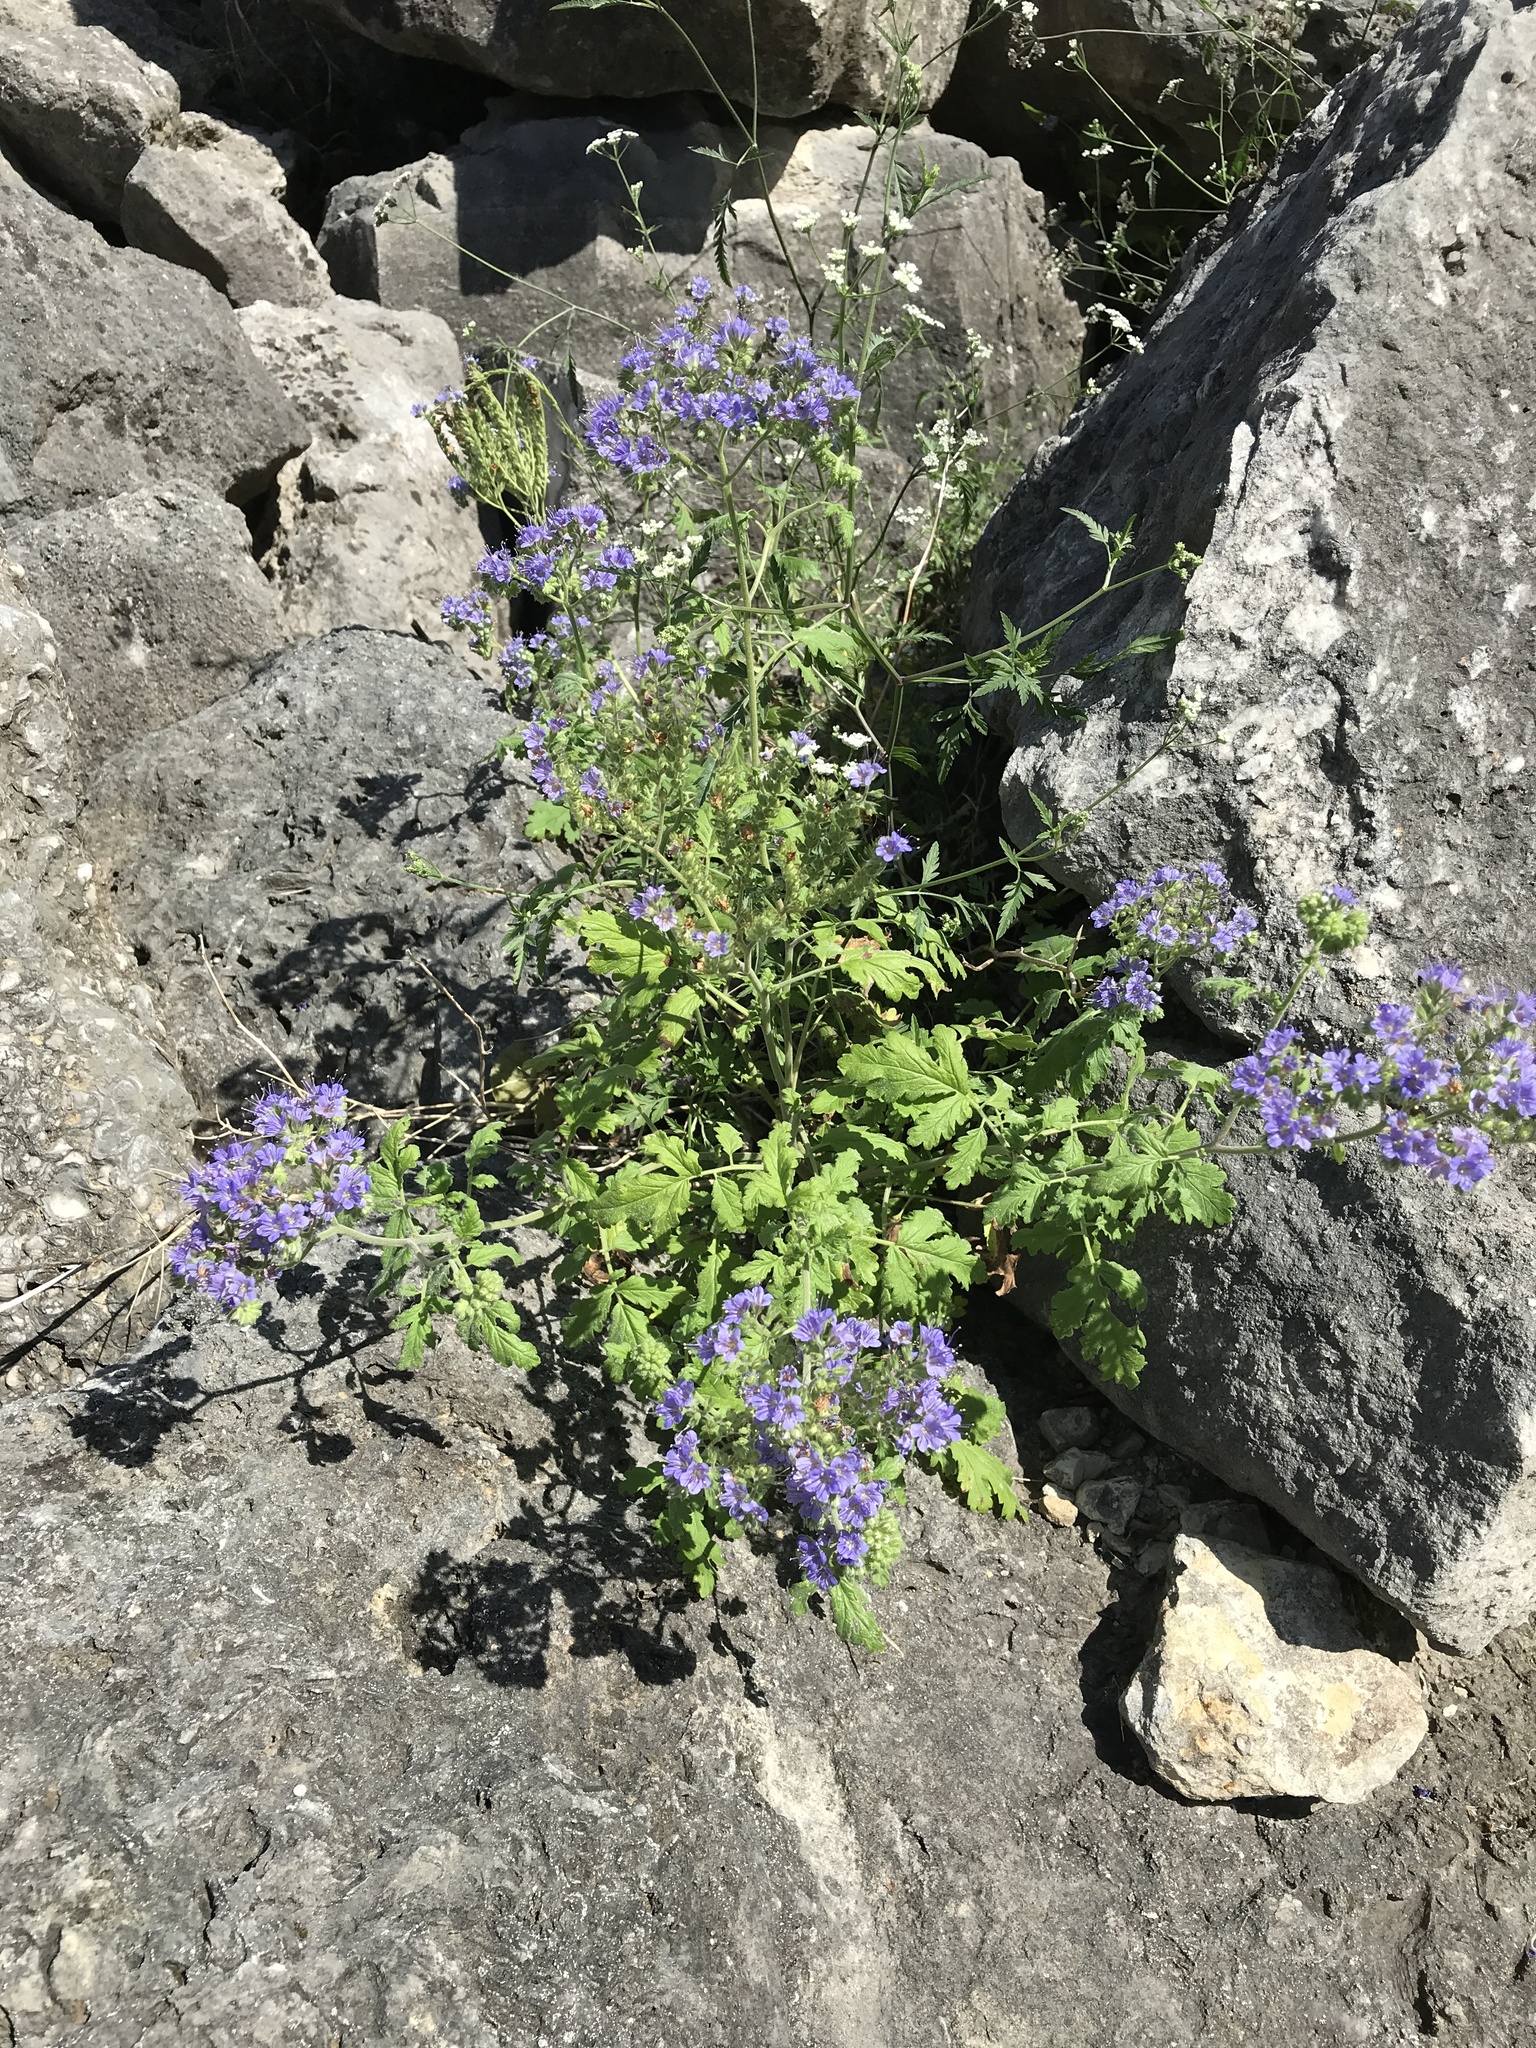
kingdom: Plantae
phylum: Tracheophyta
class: Magnoliopsida
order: Boraginales
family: Hydrophyllaceae
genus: Phacelia
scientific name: Phacelia congesta
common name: Blue curls
